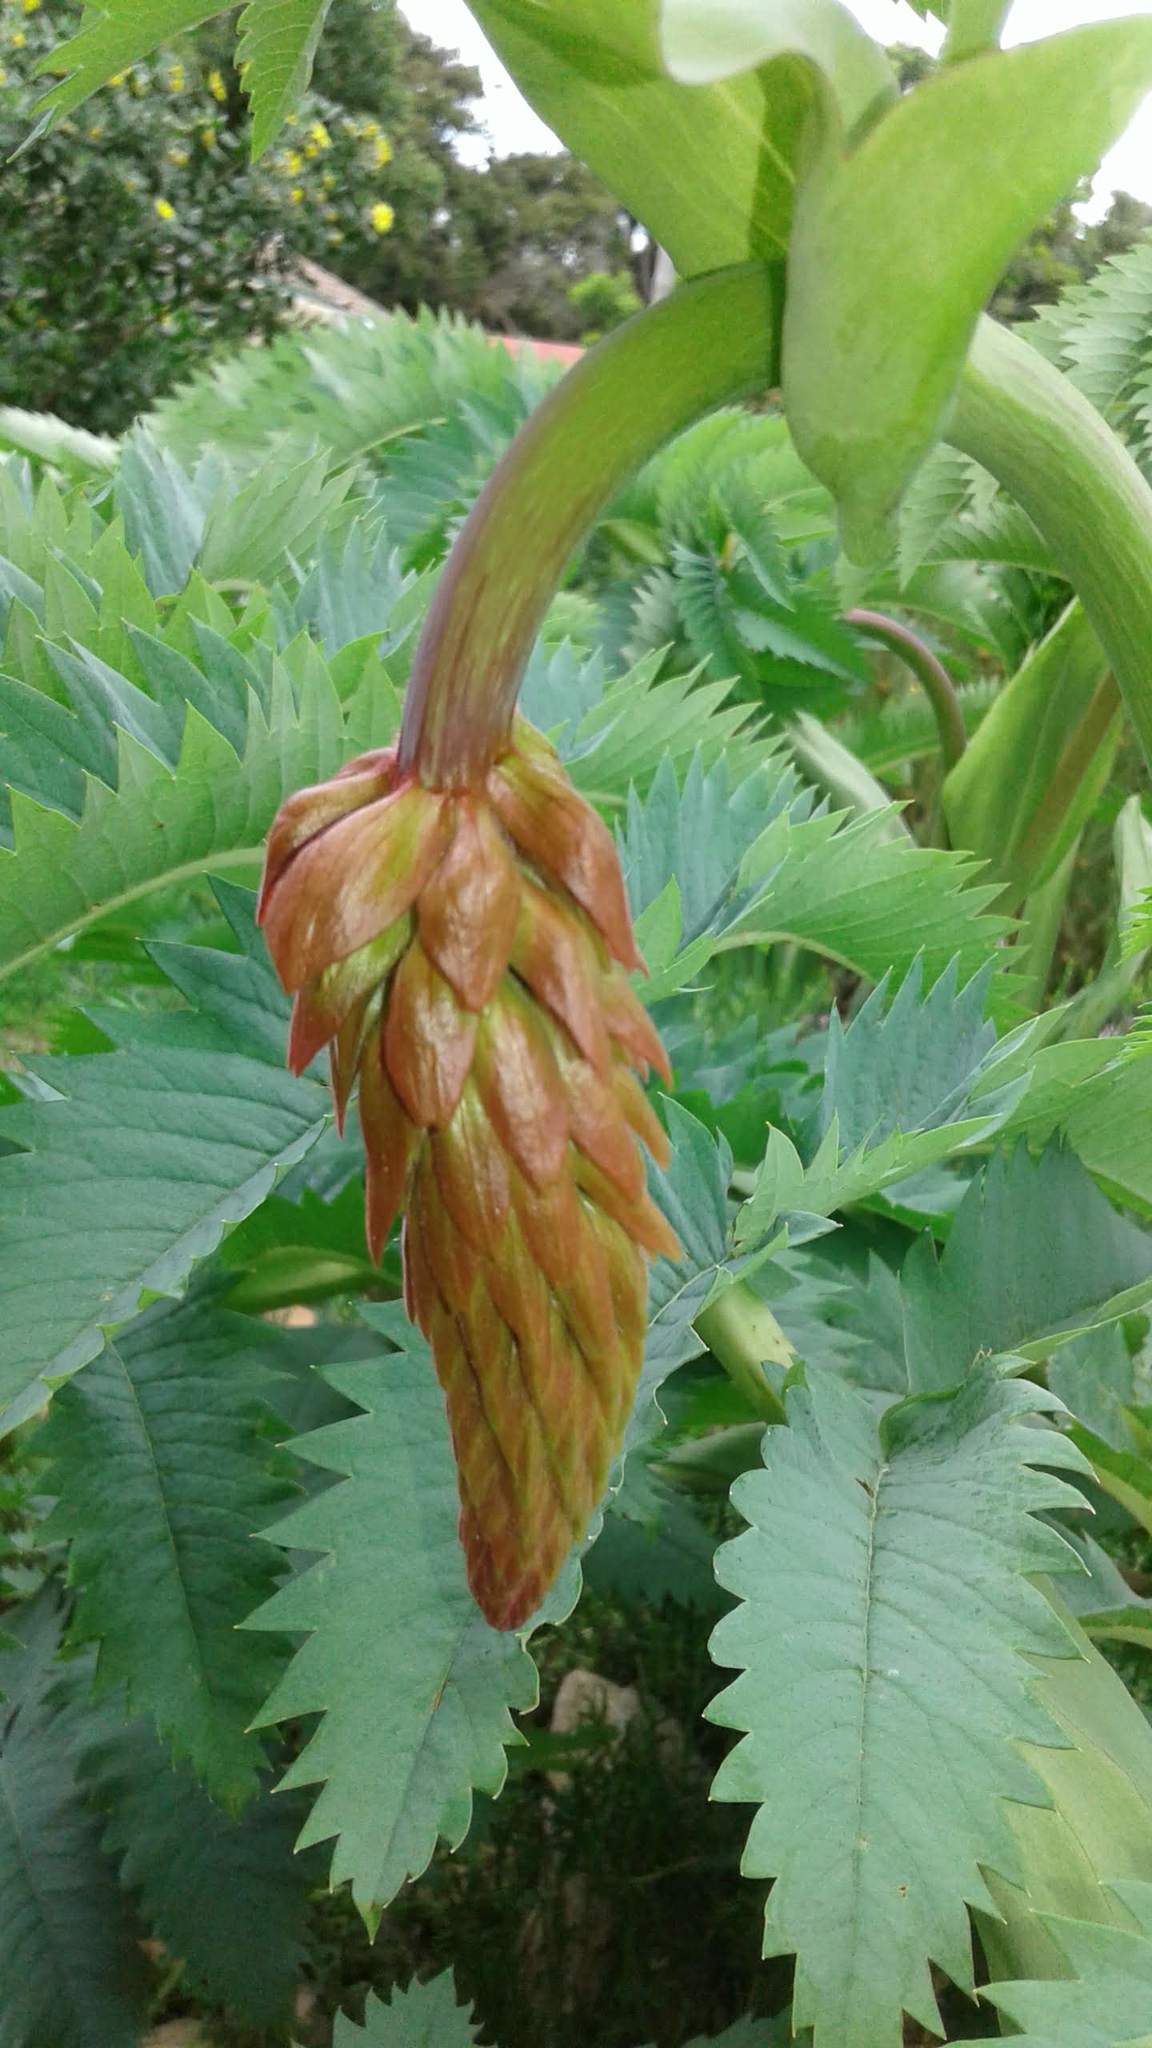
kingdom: Plantae
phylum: Tracheophyta
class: Magnoliopsida
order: Geraniales
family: Melianthaceae
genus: Melianthus
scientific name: Melianthus major
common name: Honey-flower
